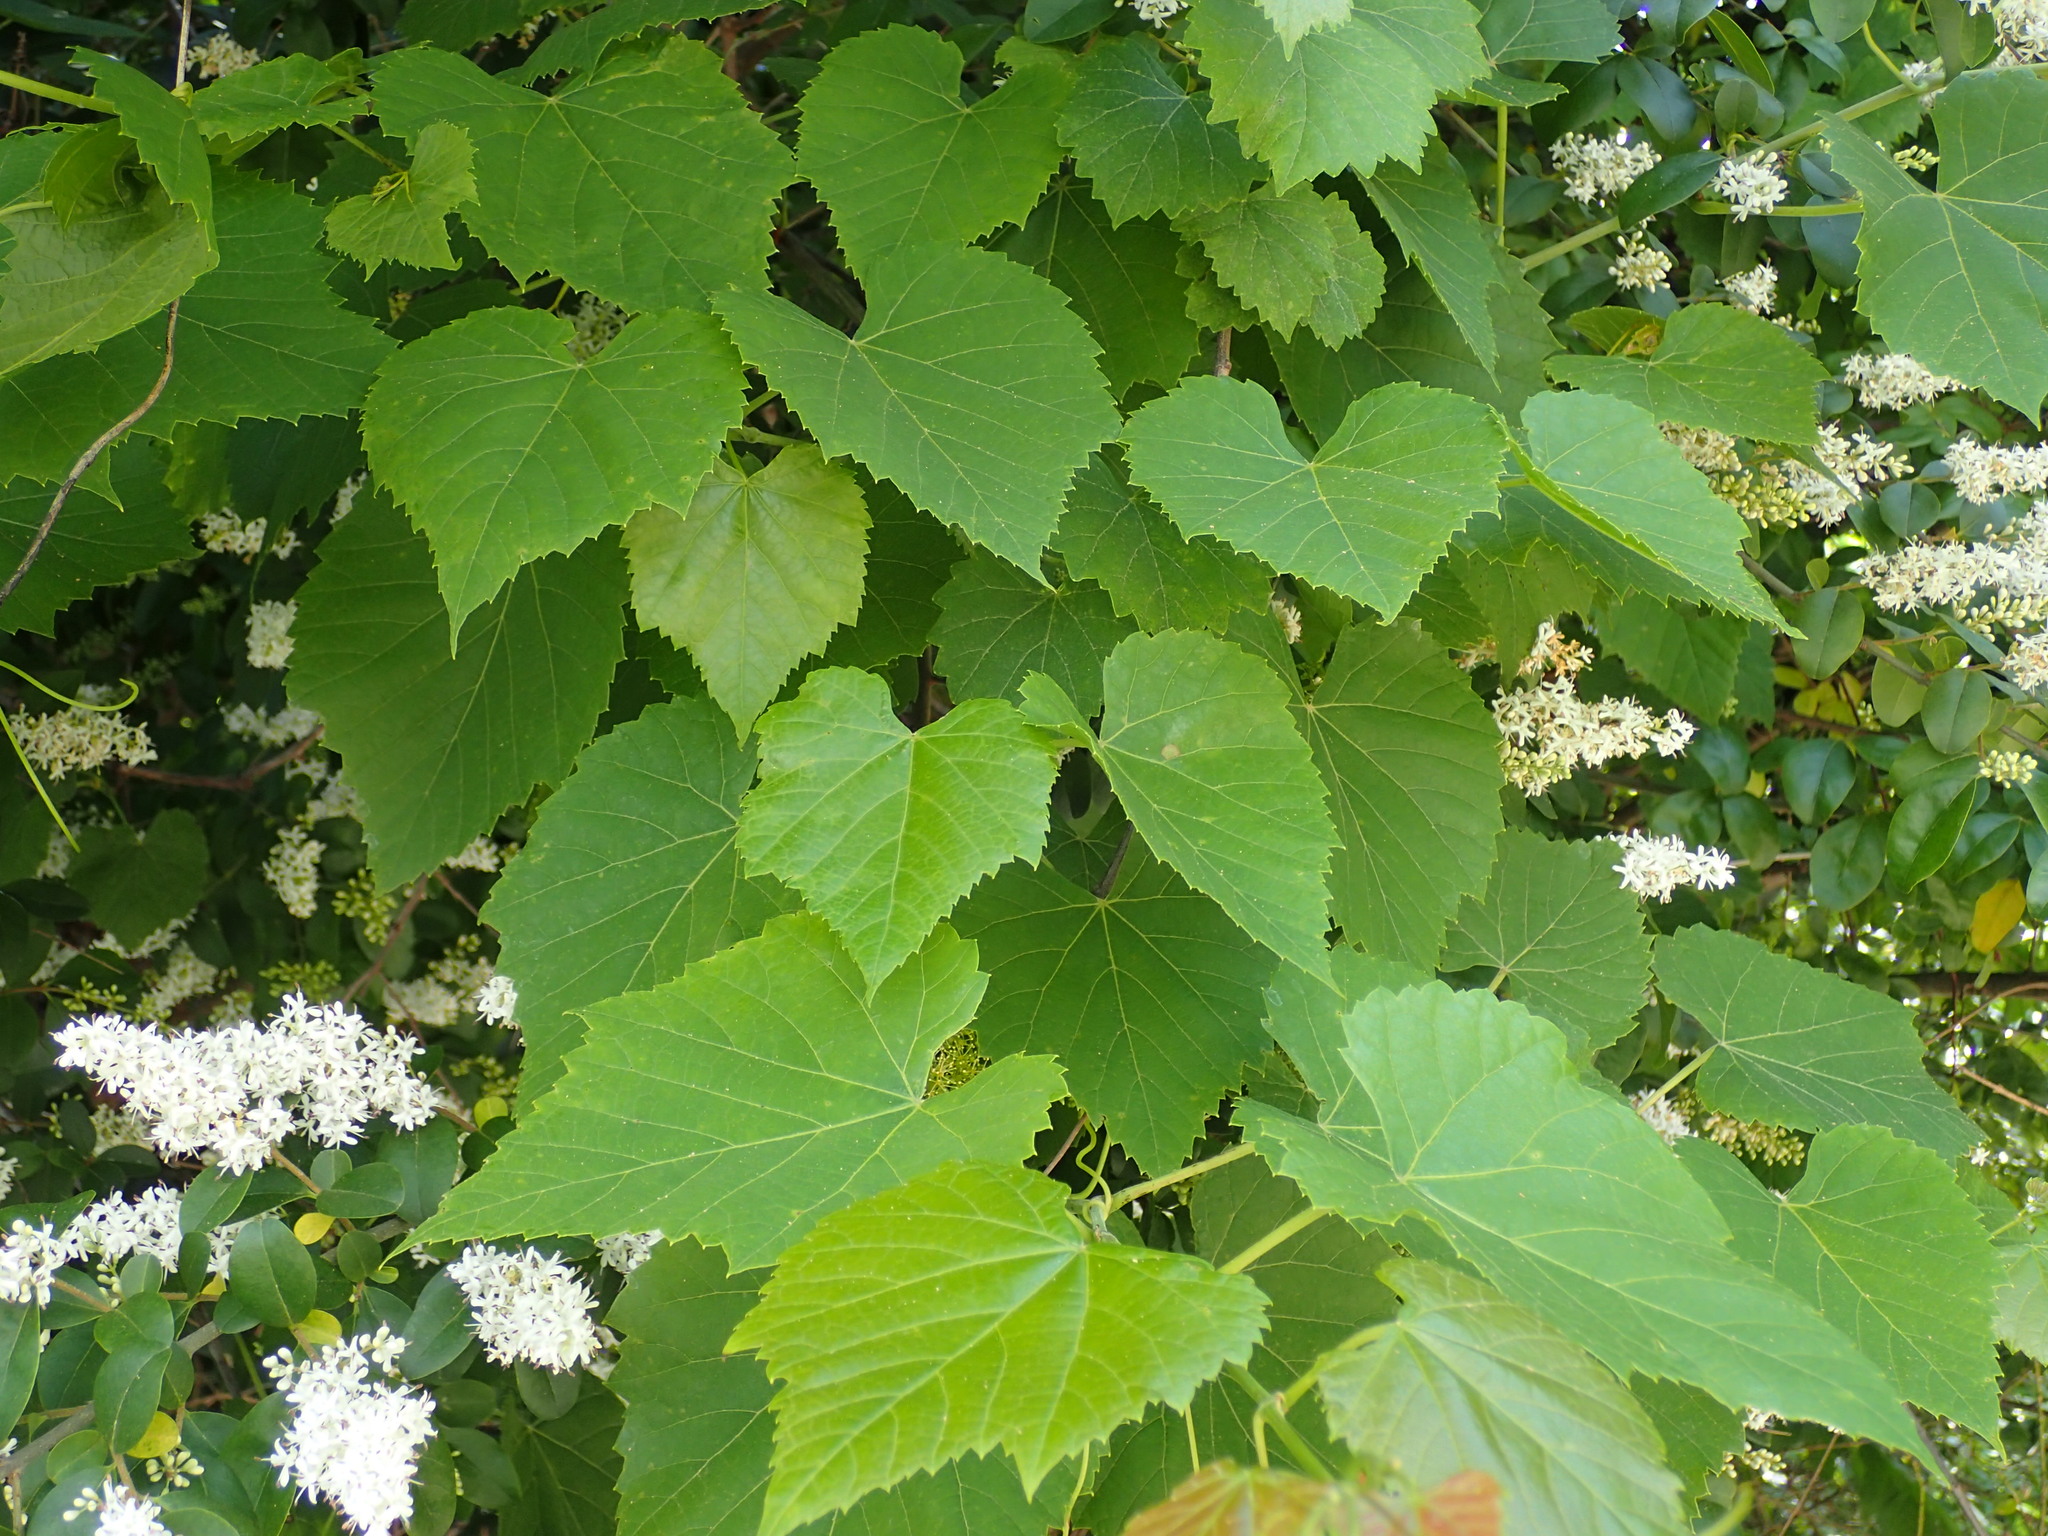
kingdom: Plantae
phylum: Tracheophyta
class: Magnoliopsida
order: Vitales
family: Vitaceae
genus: Vitis
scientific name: Vitis rotundifolia
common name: Muscadine grape
